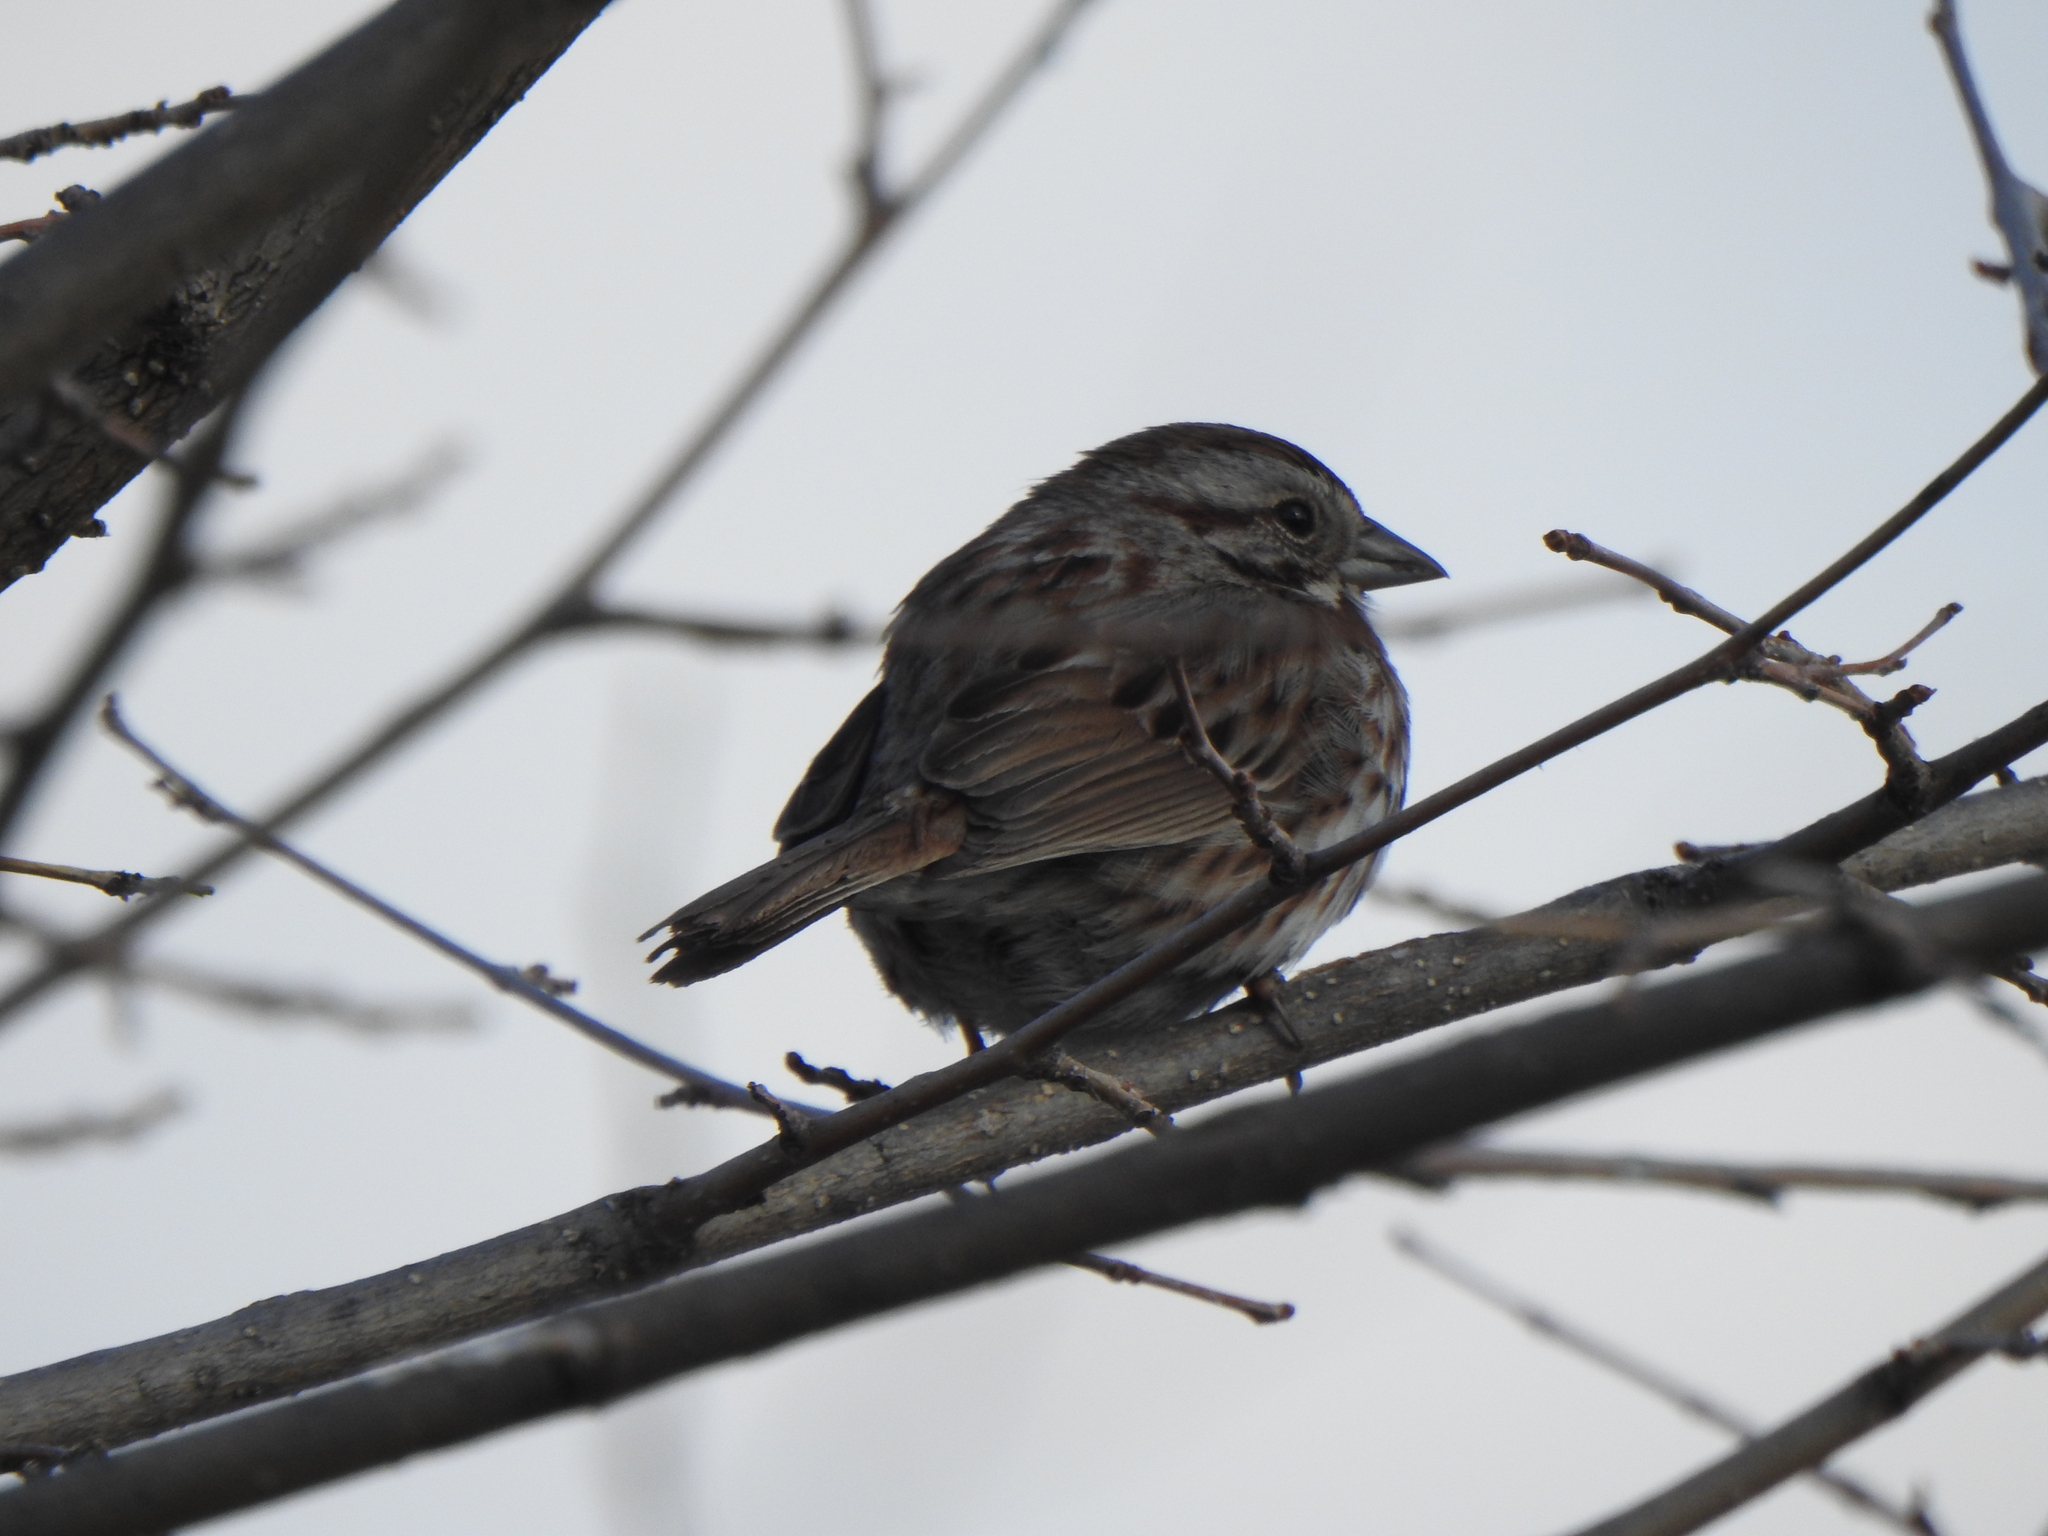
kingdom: Animalia
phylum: Chordata
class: Aves
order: Passeriformes
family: Passerellidae
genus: Melospiza
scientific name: Melospiza melodia
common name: Song sparrow
